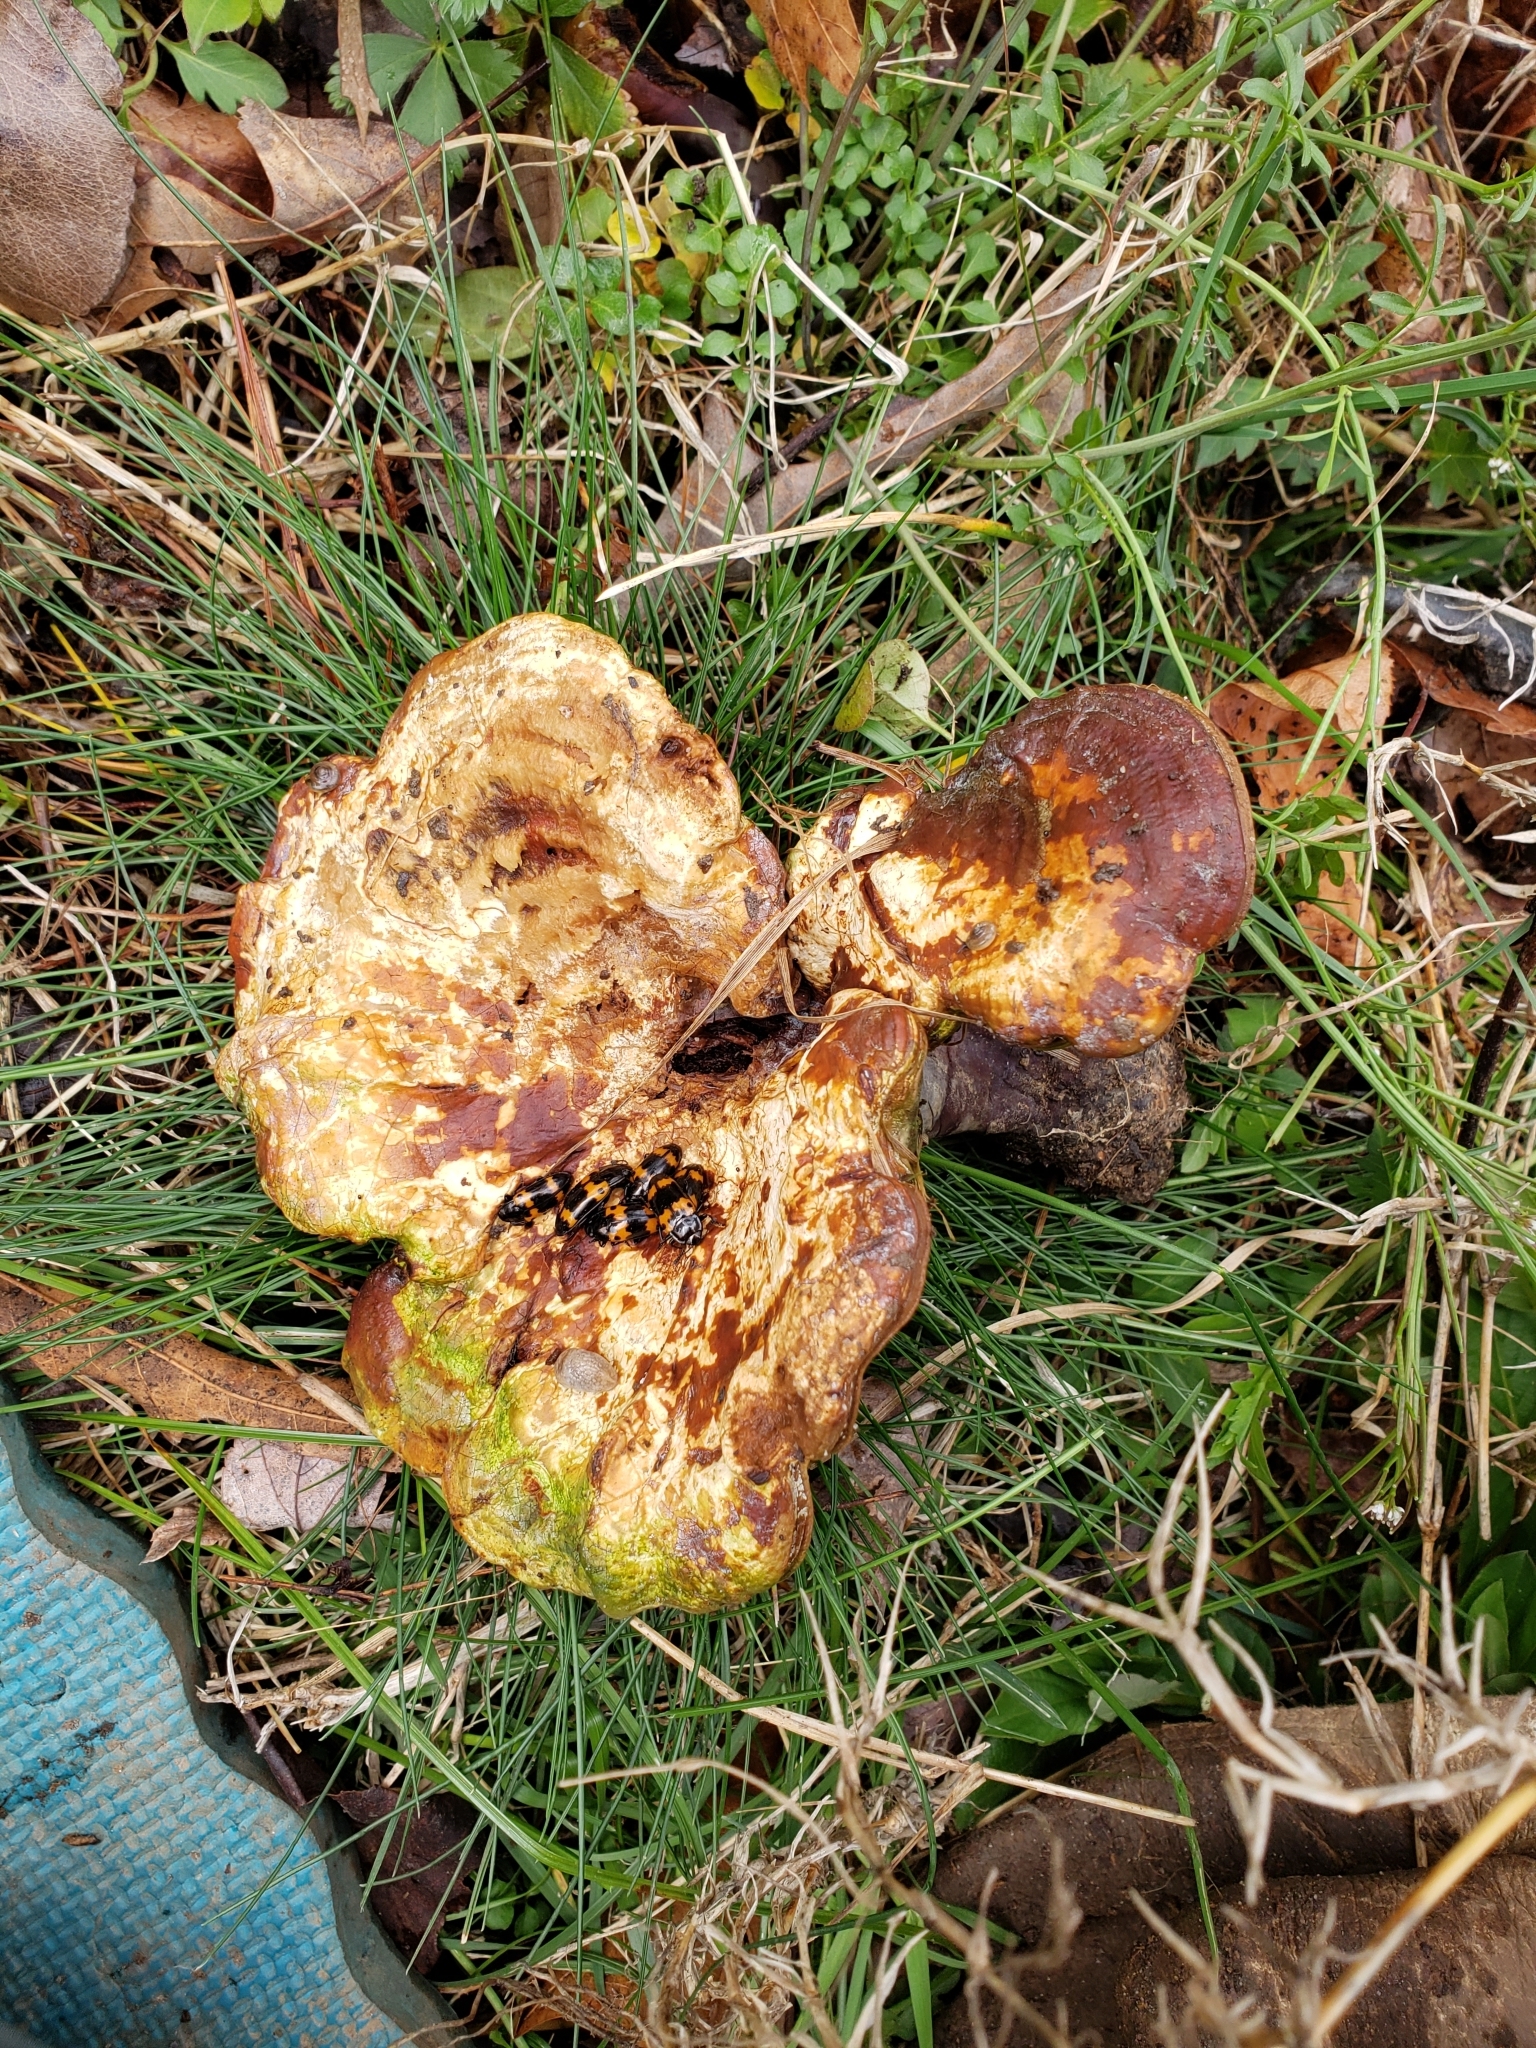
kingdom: Animalia
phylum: Arthropoda
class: Insecta
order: Coleoptera
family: Erotylidae
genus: Megalodacne
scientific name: Megalodacne fasciata
